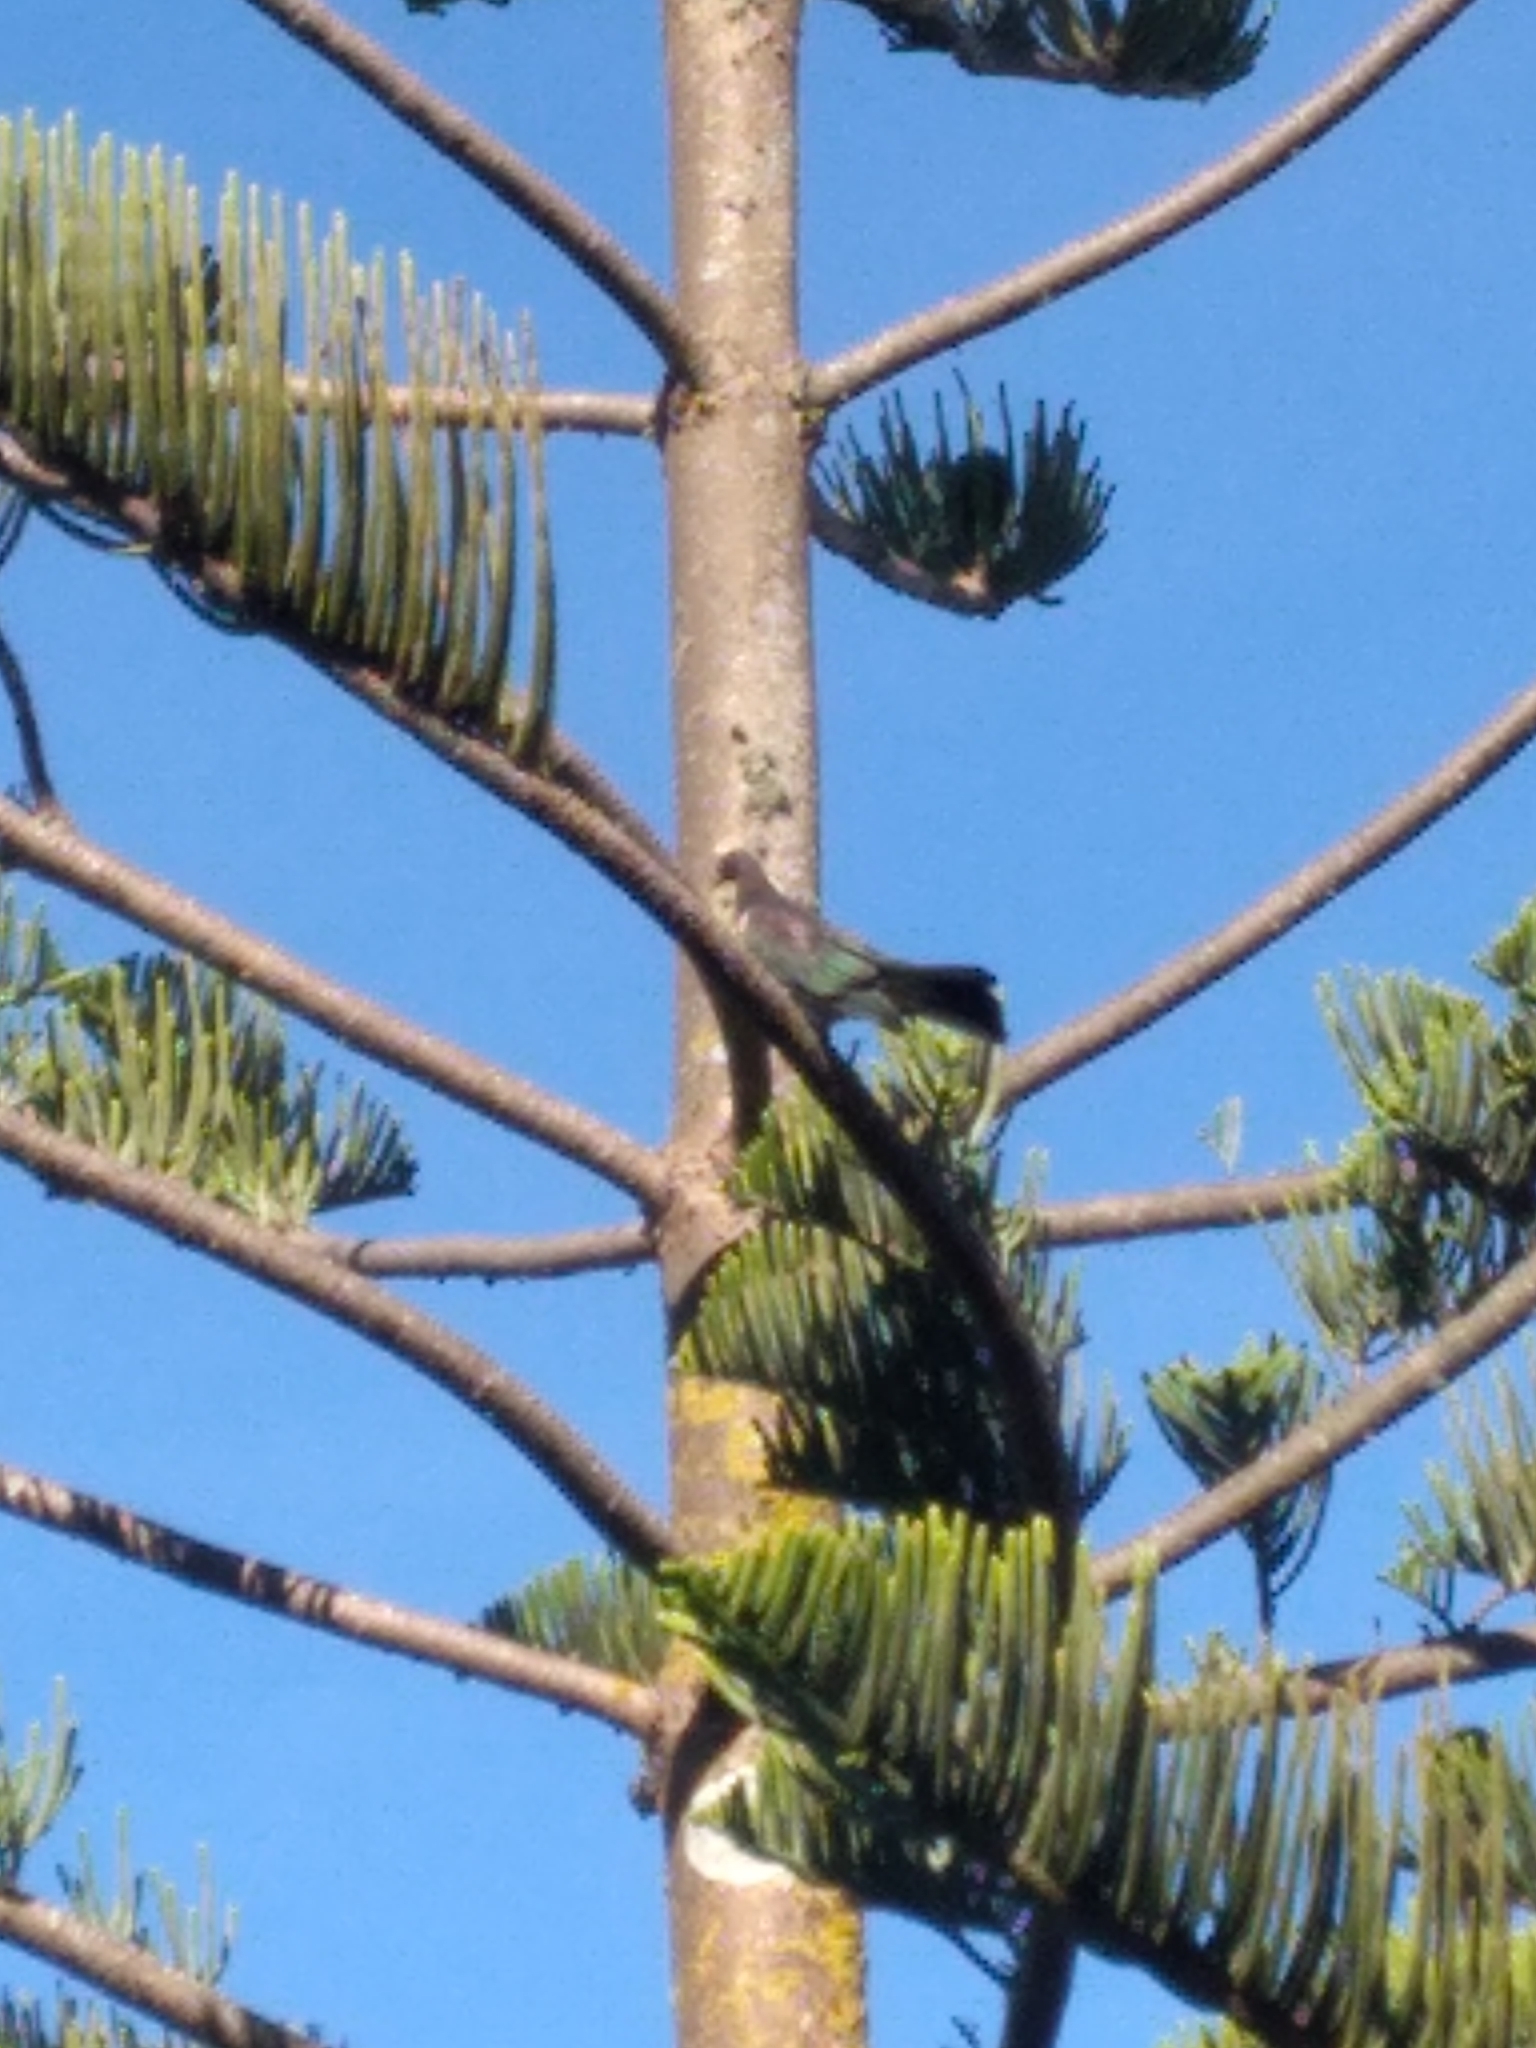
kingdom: Animalia
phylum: Chordata
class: Aves
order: Columbiformes
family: Columbidae
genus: Hemiphaga
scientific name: Hemiphaga novaeseelandiae
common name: New zealand pigeon
